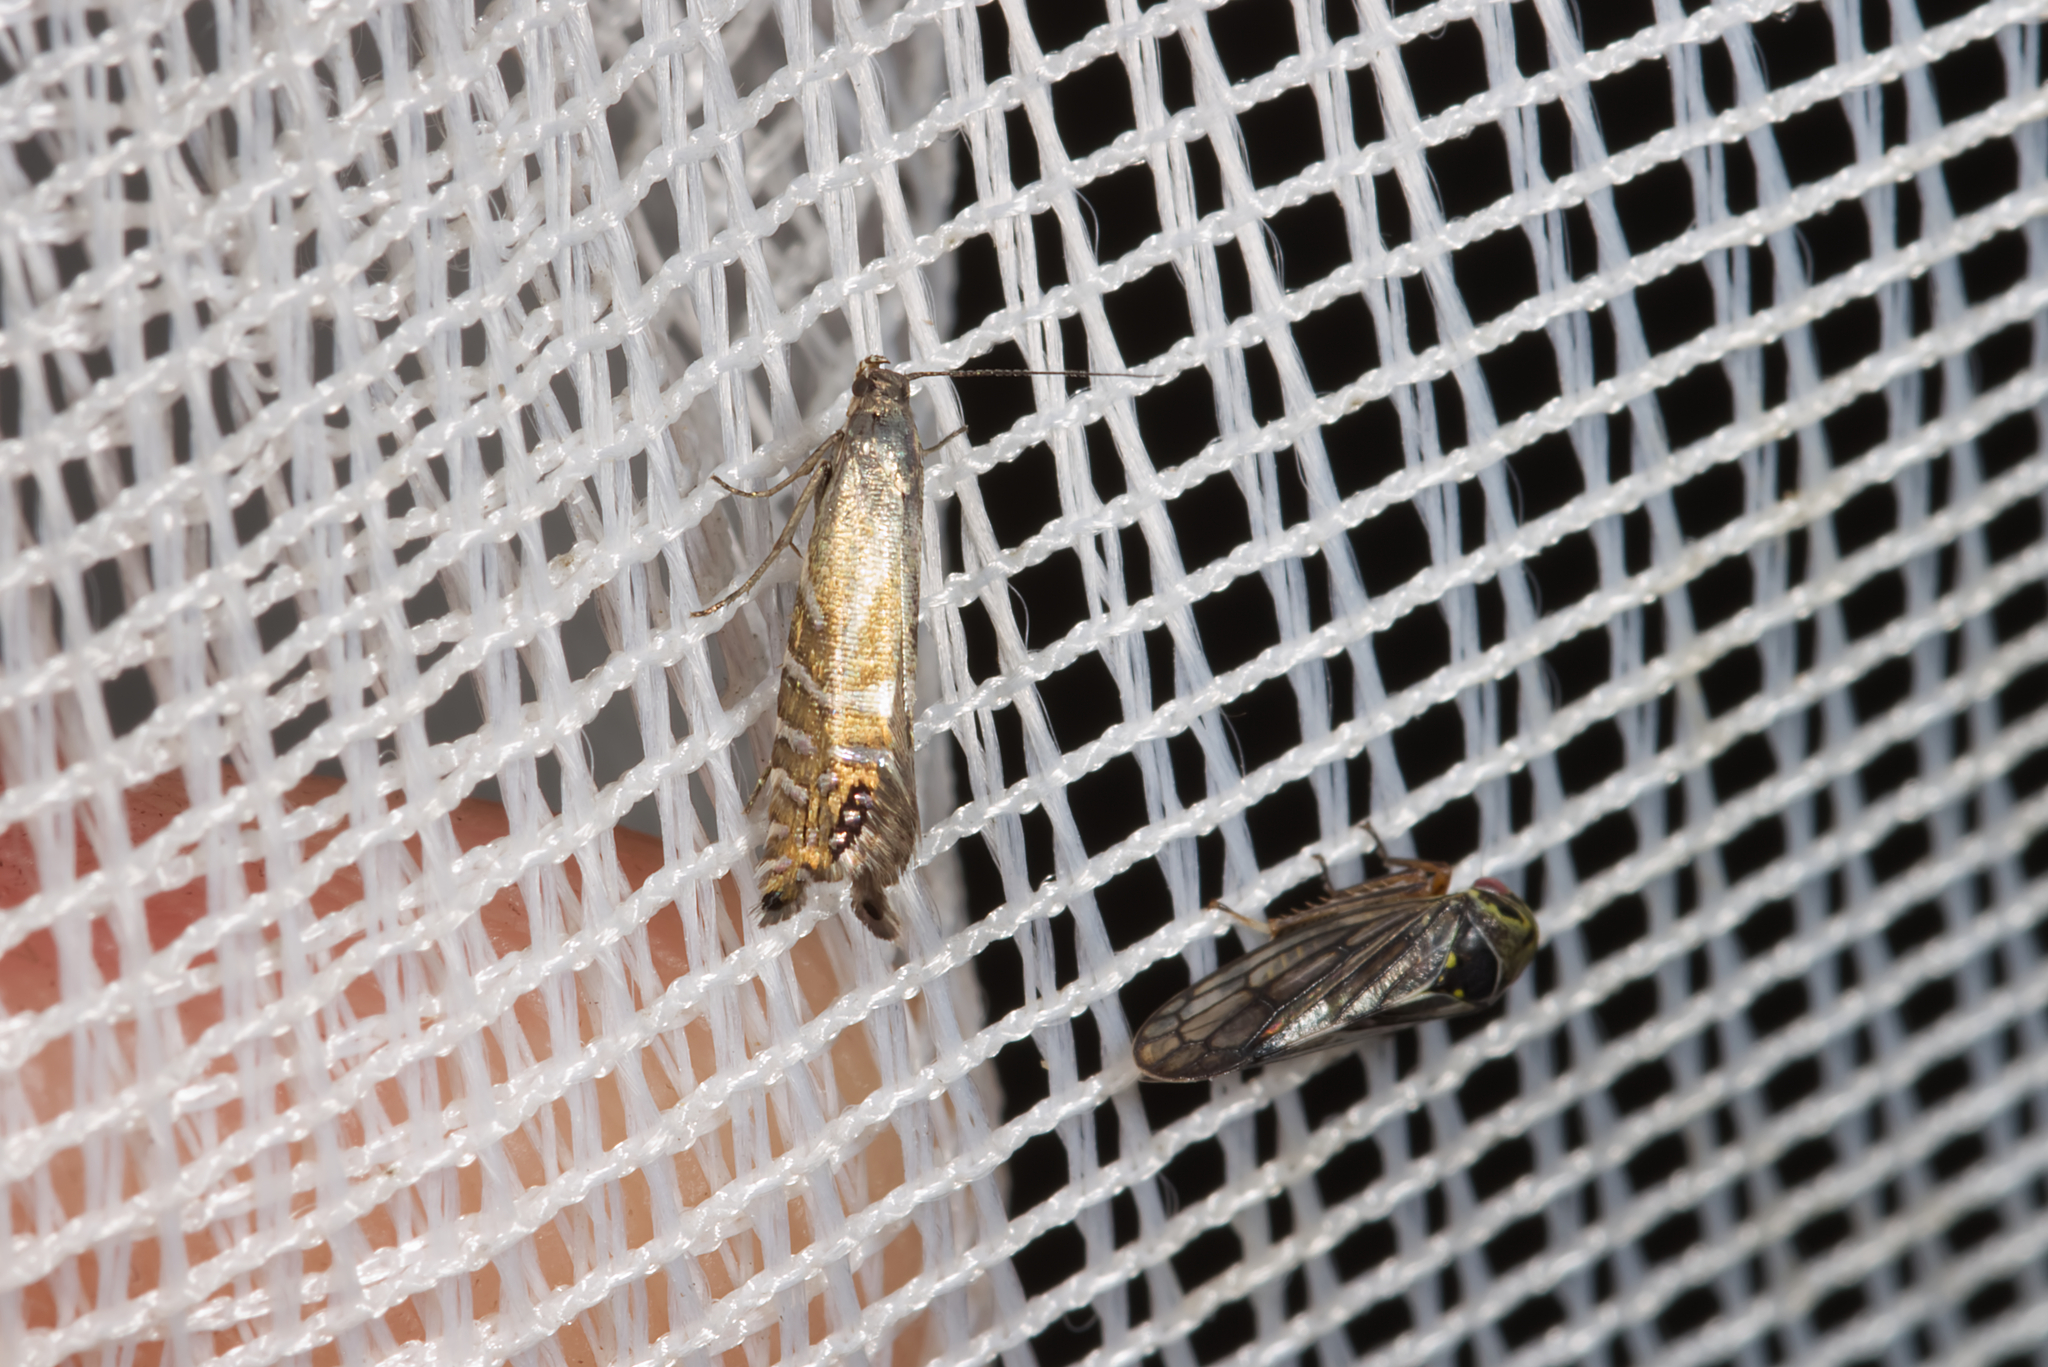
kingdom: Animalia
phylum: Arthropoda
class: Insecta
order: Lepidoptera
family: Glyphipterigidae
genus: Glyphipterix
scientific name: Glyphipterix thrasonella
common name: Speckled fanner
